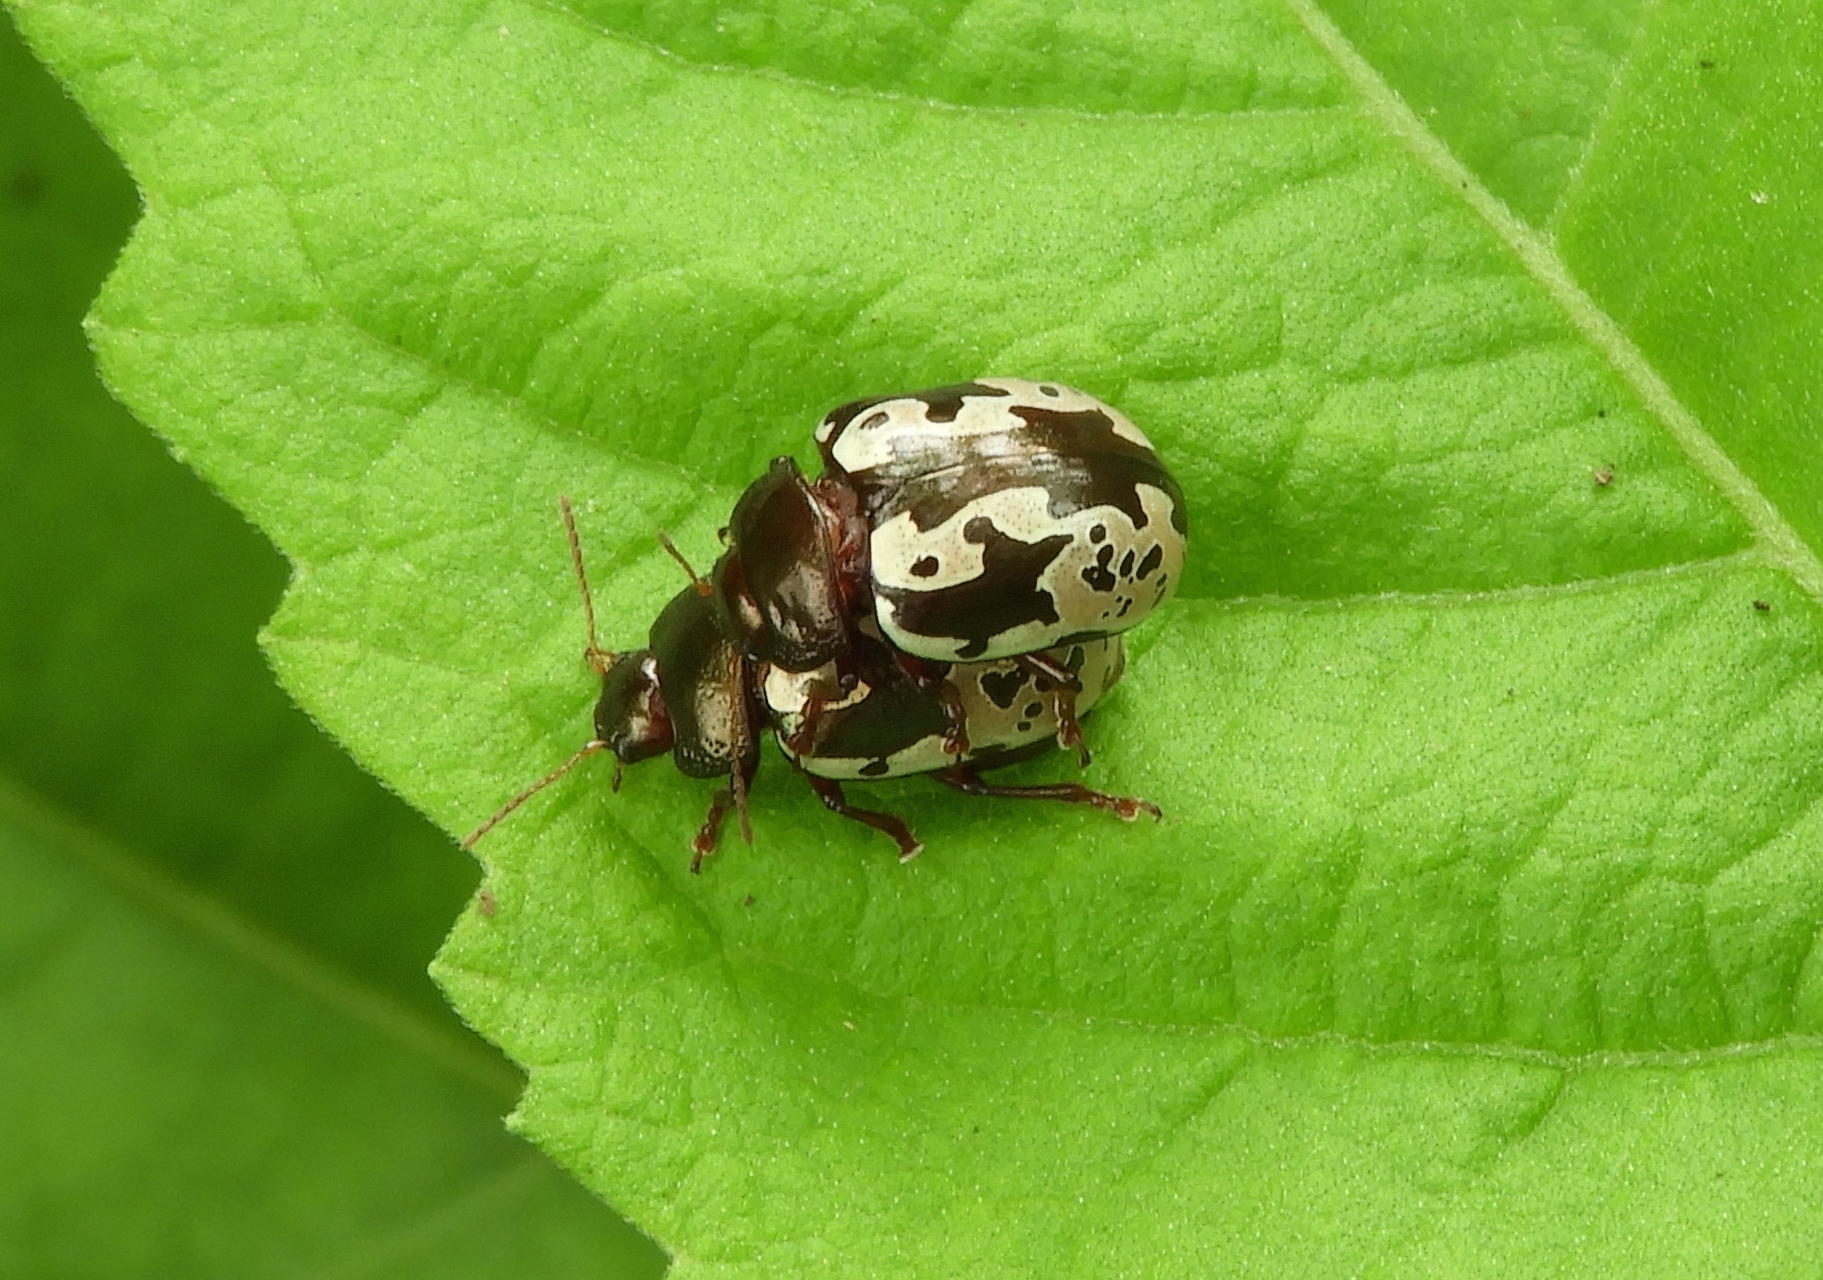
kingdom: Animalia
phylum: Arthropoda
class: Insecta
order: Coleoptera
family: Chrysomelidae
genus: Calligrapha
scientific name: Calligrapha intermedia
